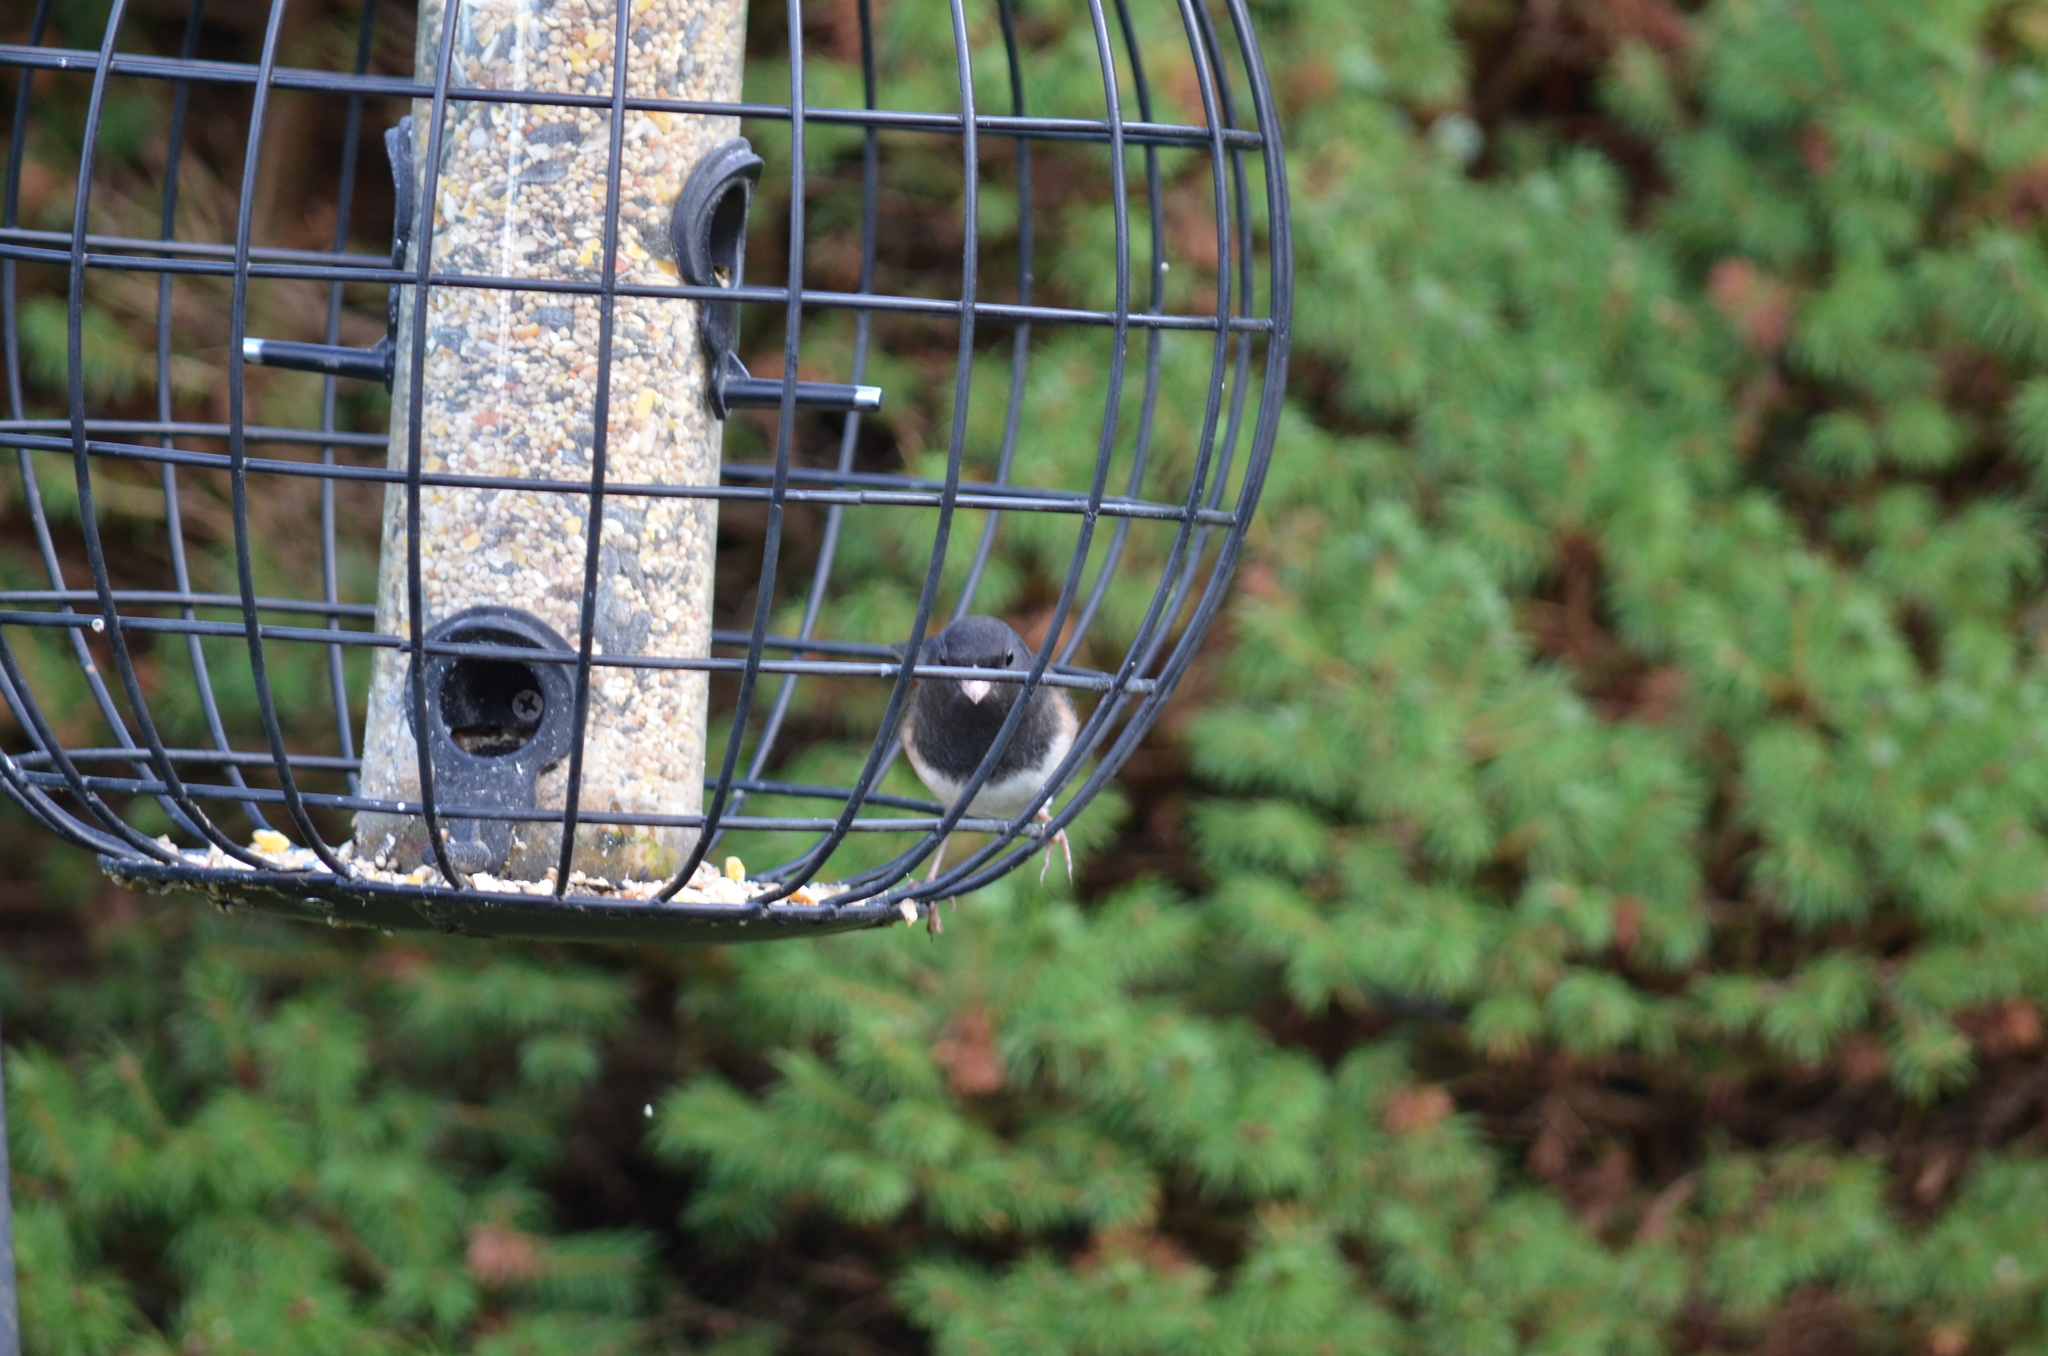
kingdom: Animalia
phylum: Chordata
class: Aves
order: Passeriformes
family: Passerellidae
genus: Junco
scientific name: Junco hyemalis
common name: Dark-eyed junco
